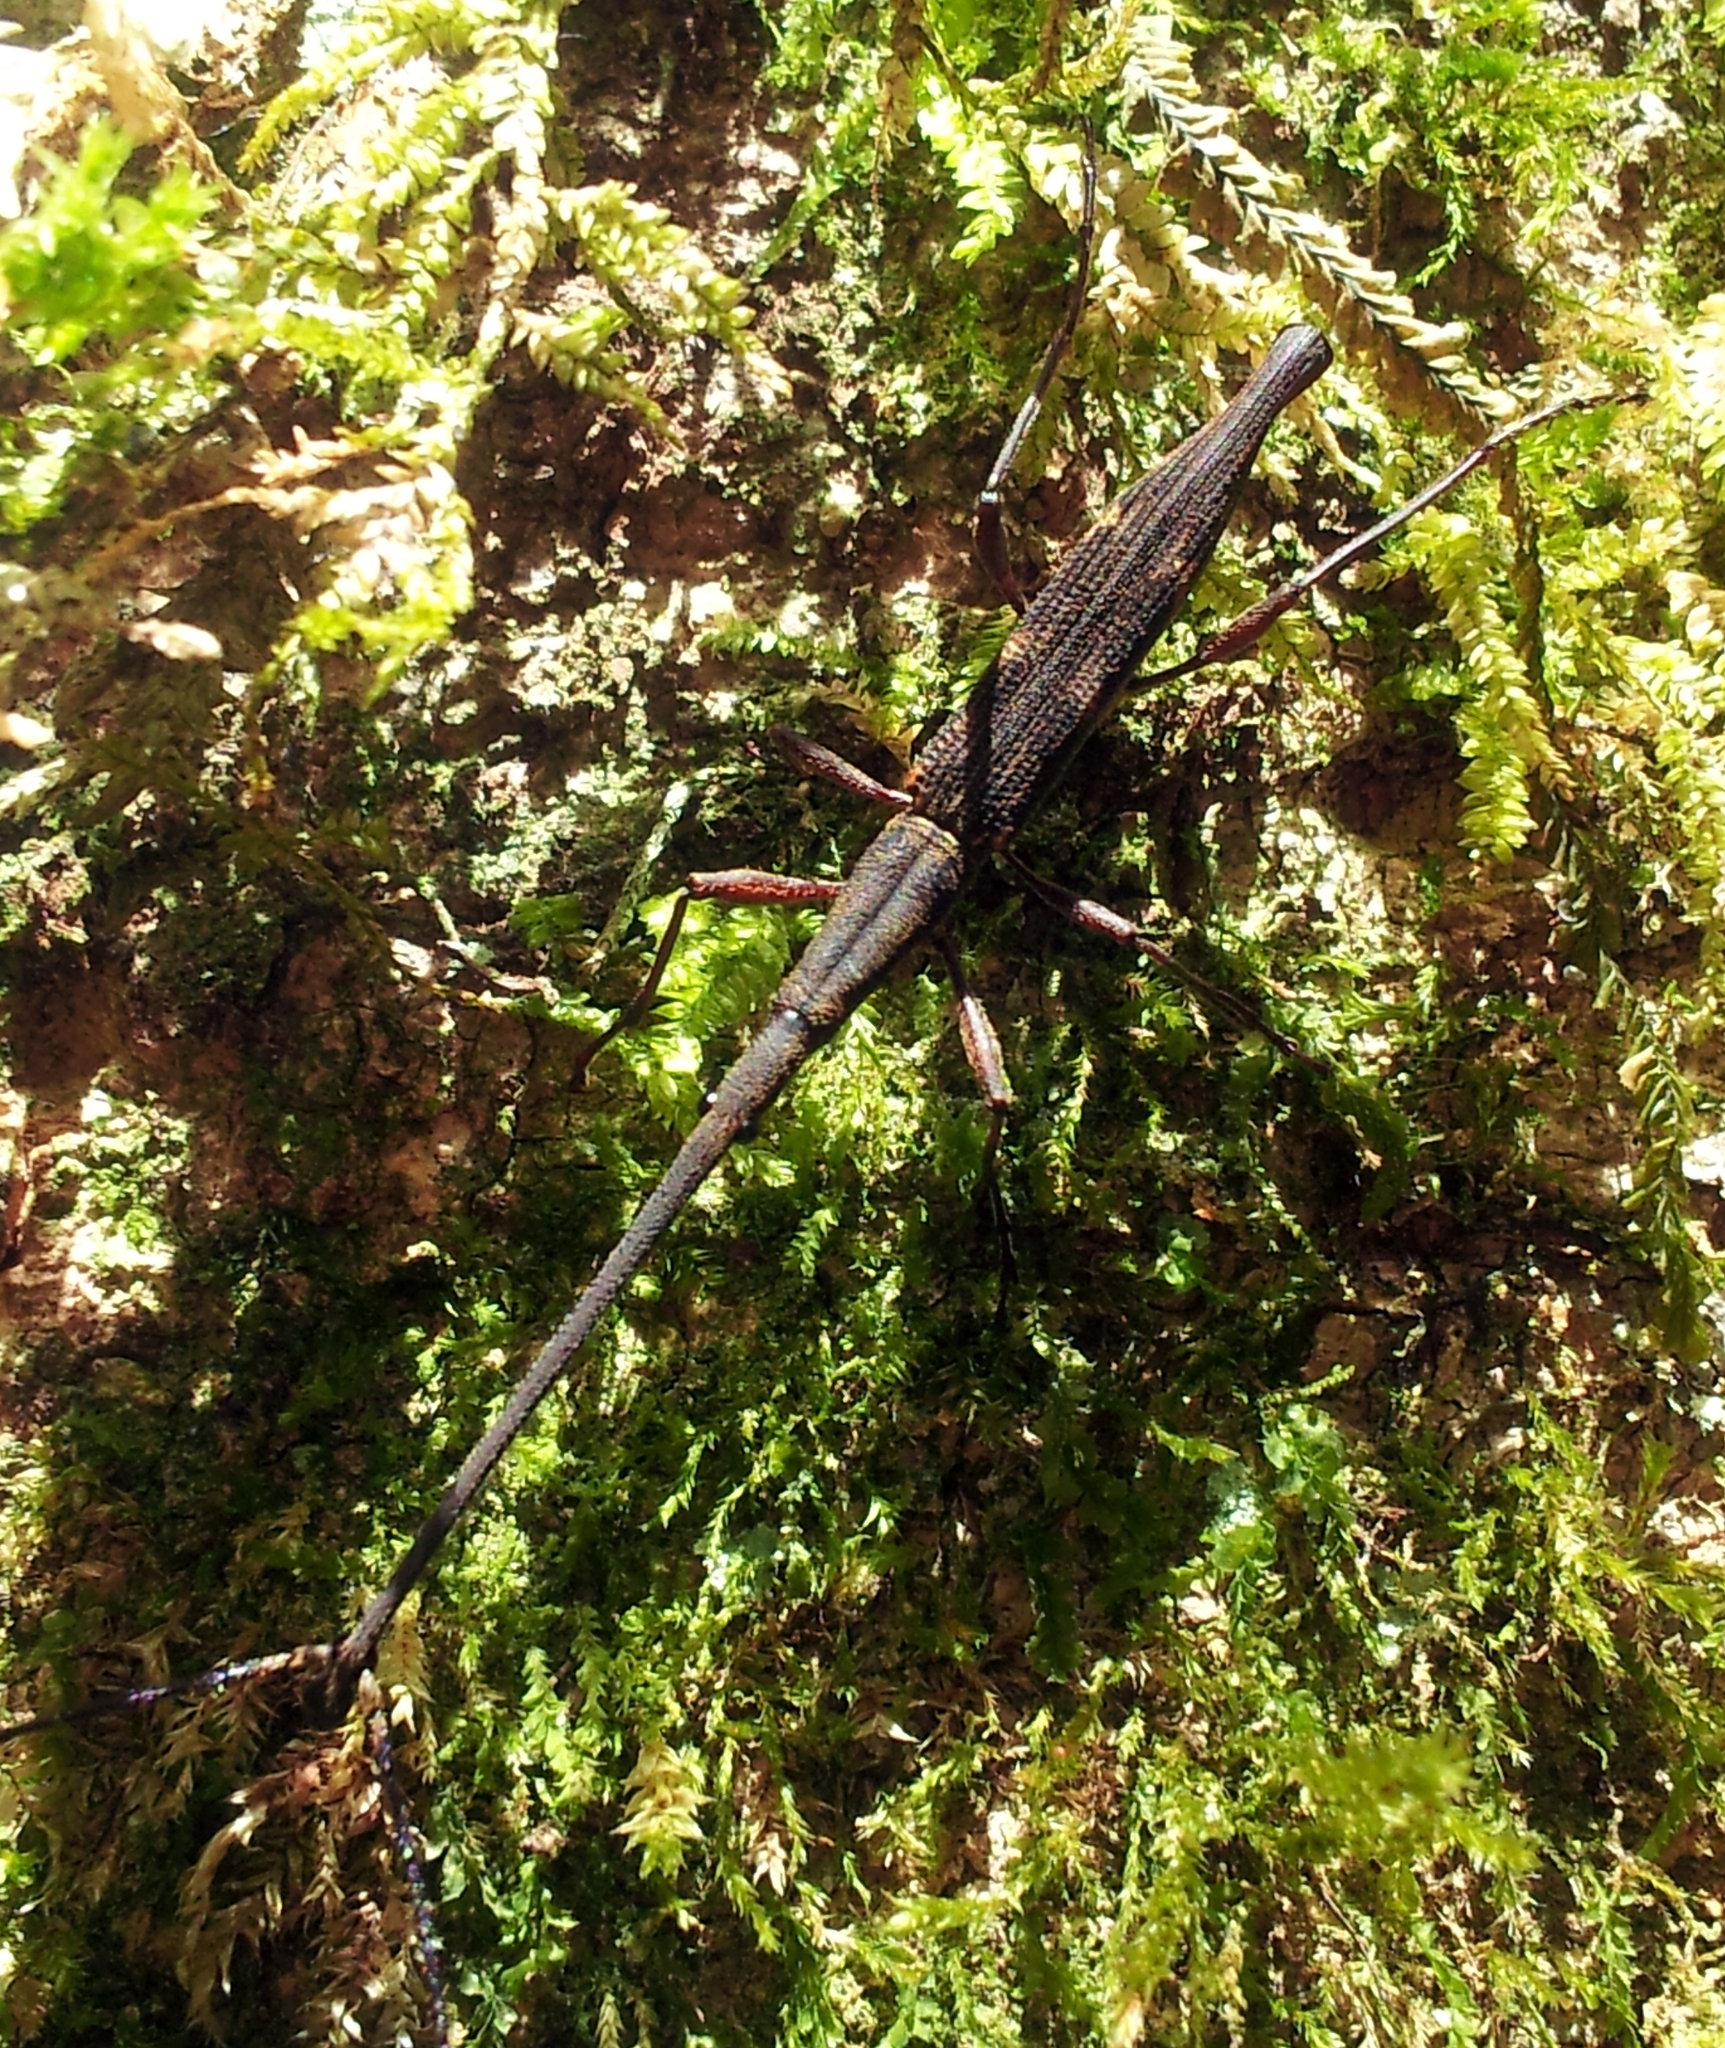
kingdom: Animalia
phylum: Arthropoda
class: Insecta
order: Coleoptera
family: Brentidae
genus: Lasiorhynchus
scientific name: Lasiorhynchus barbicornis
